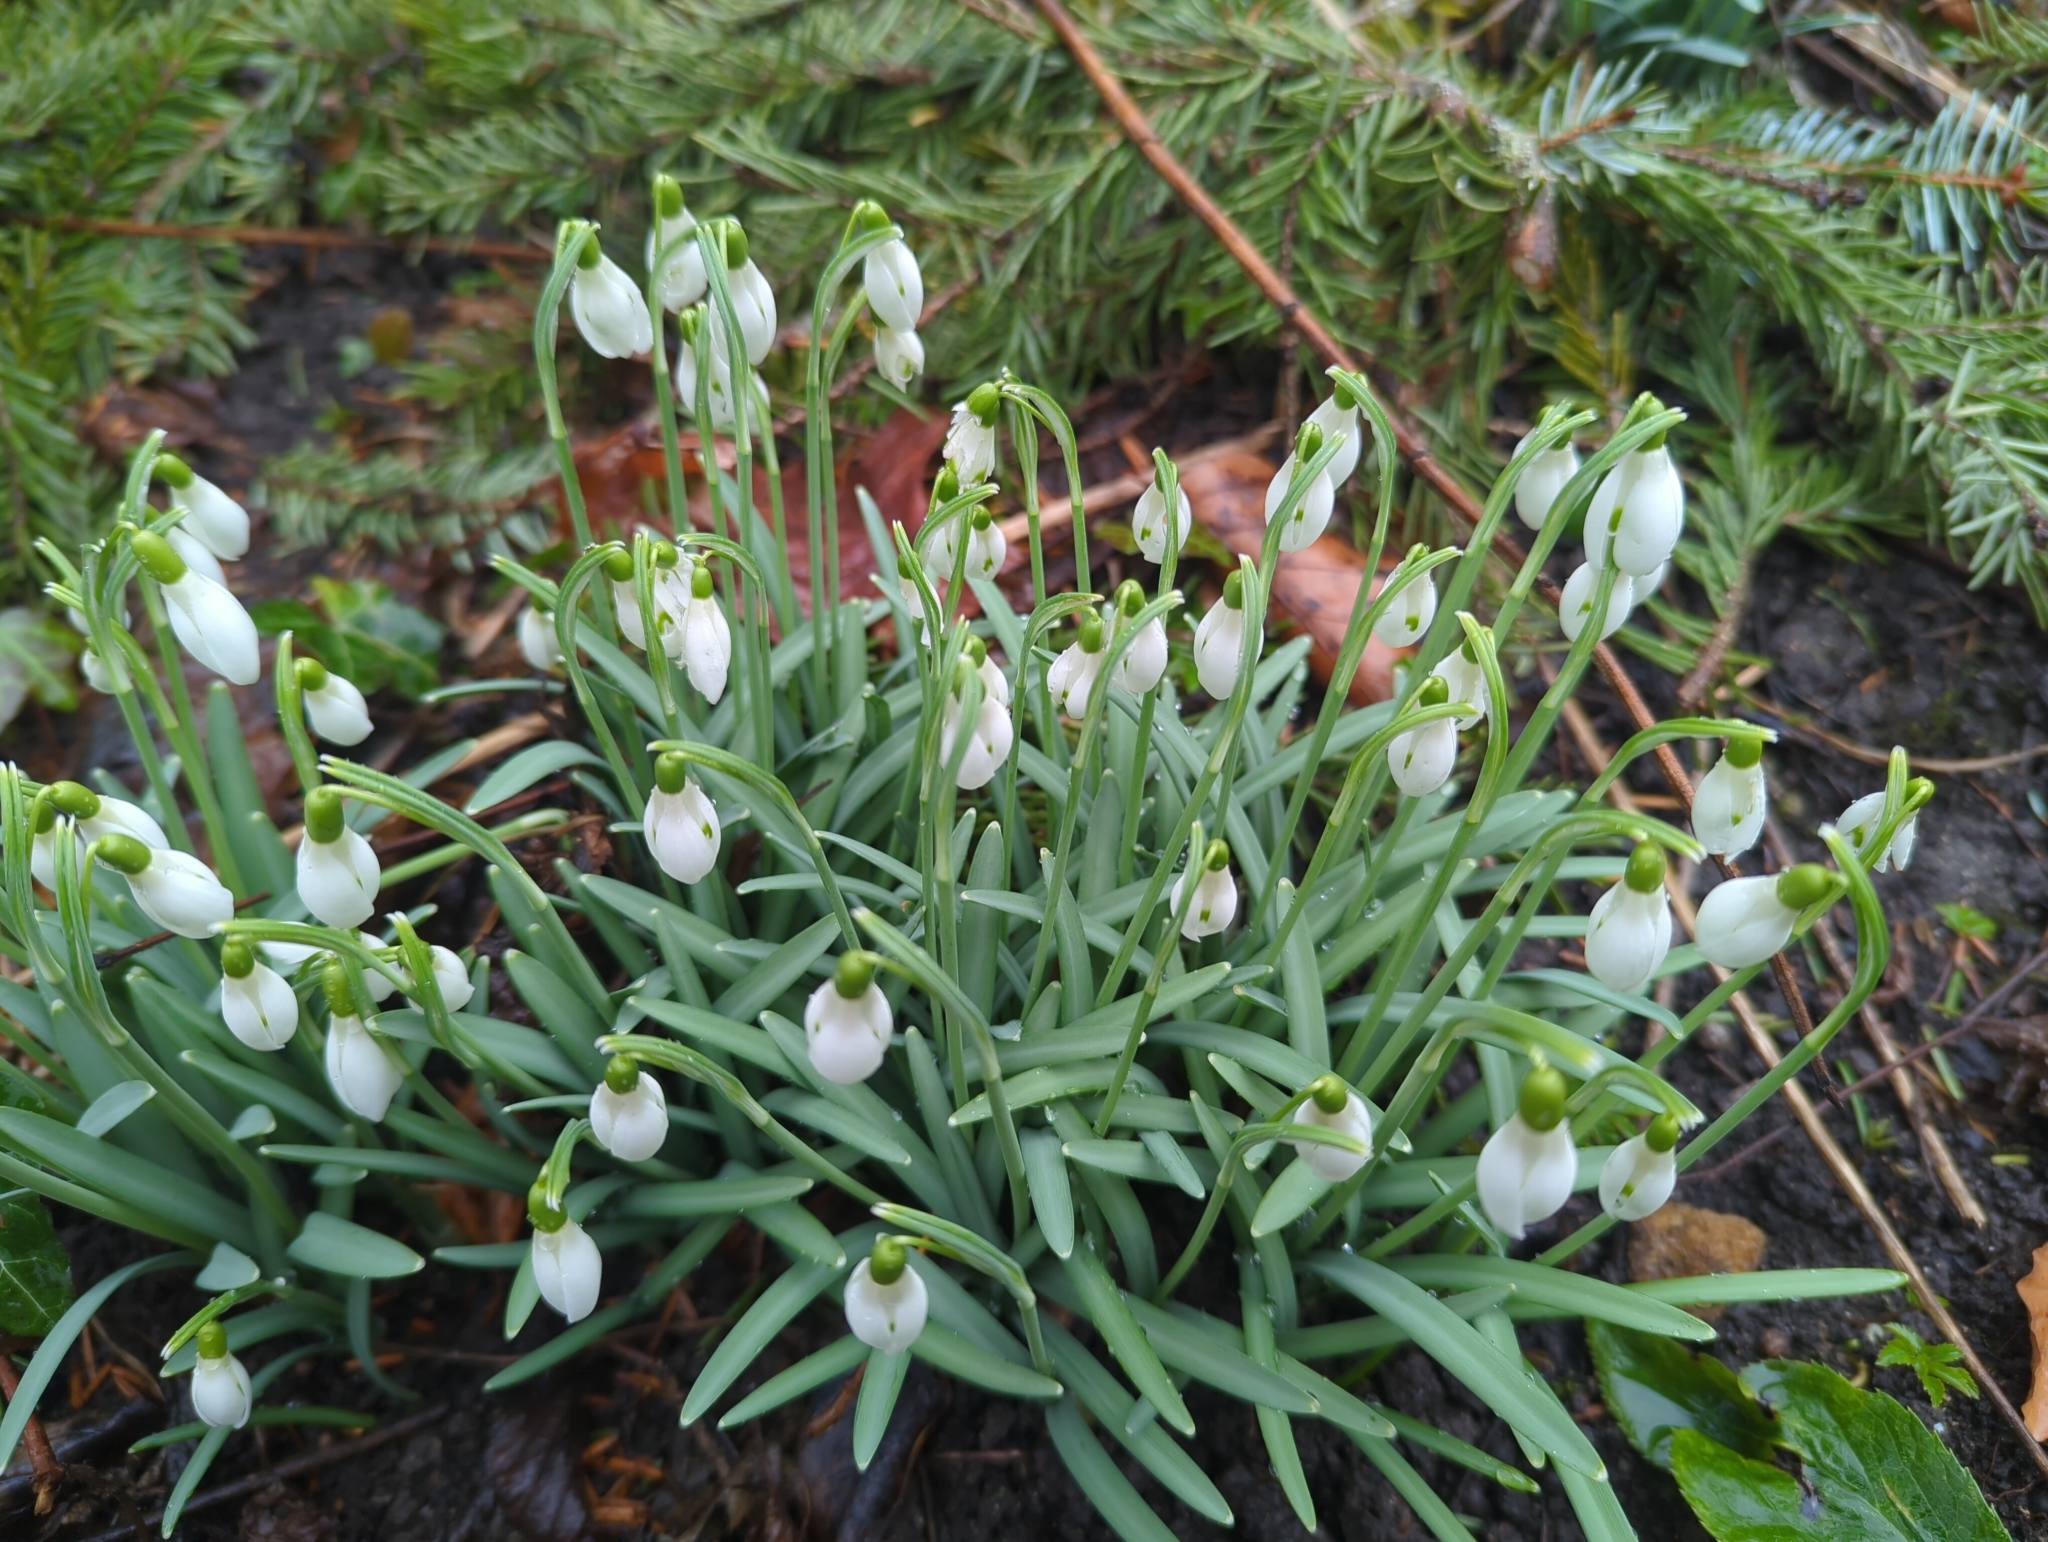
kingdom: Plantae
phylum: Tracheophyta
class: Liliopsida
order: Asparagales
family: Amaryllidaceae
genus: Galanthus
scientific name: Galanthus nivalis
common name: Snowdrop
